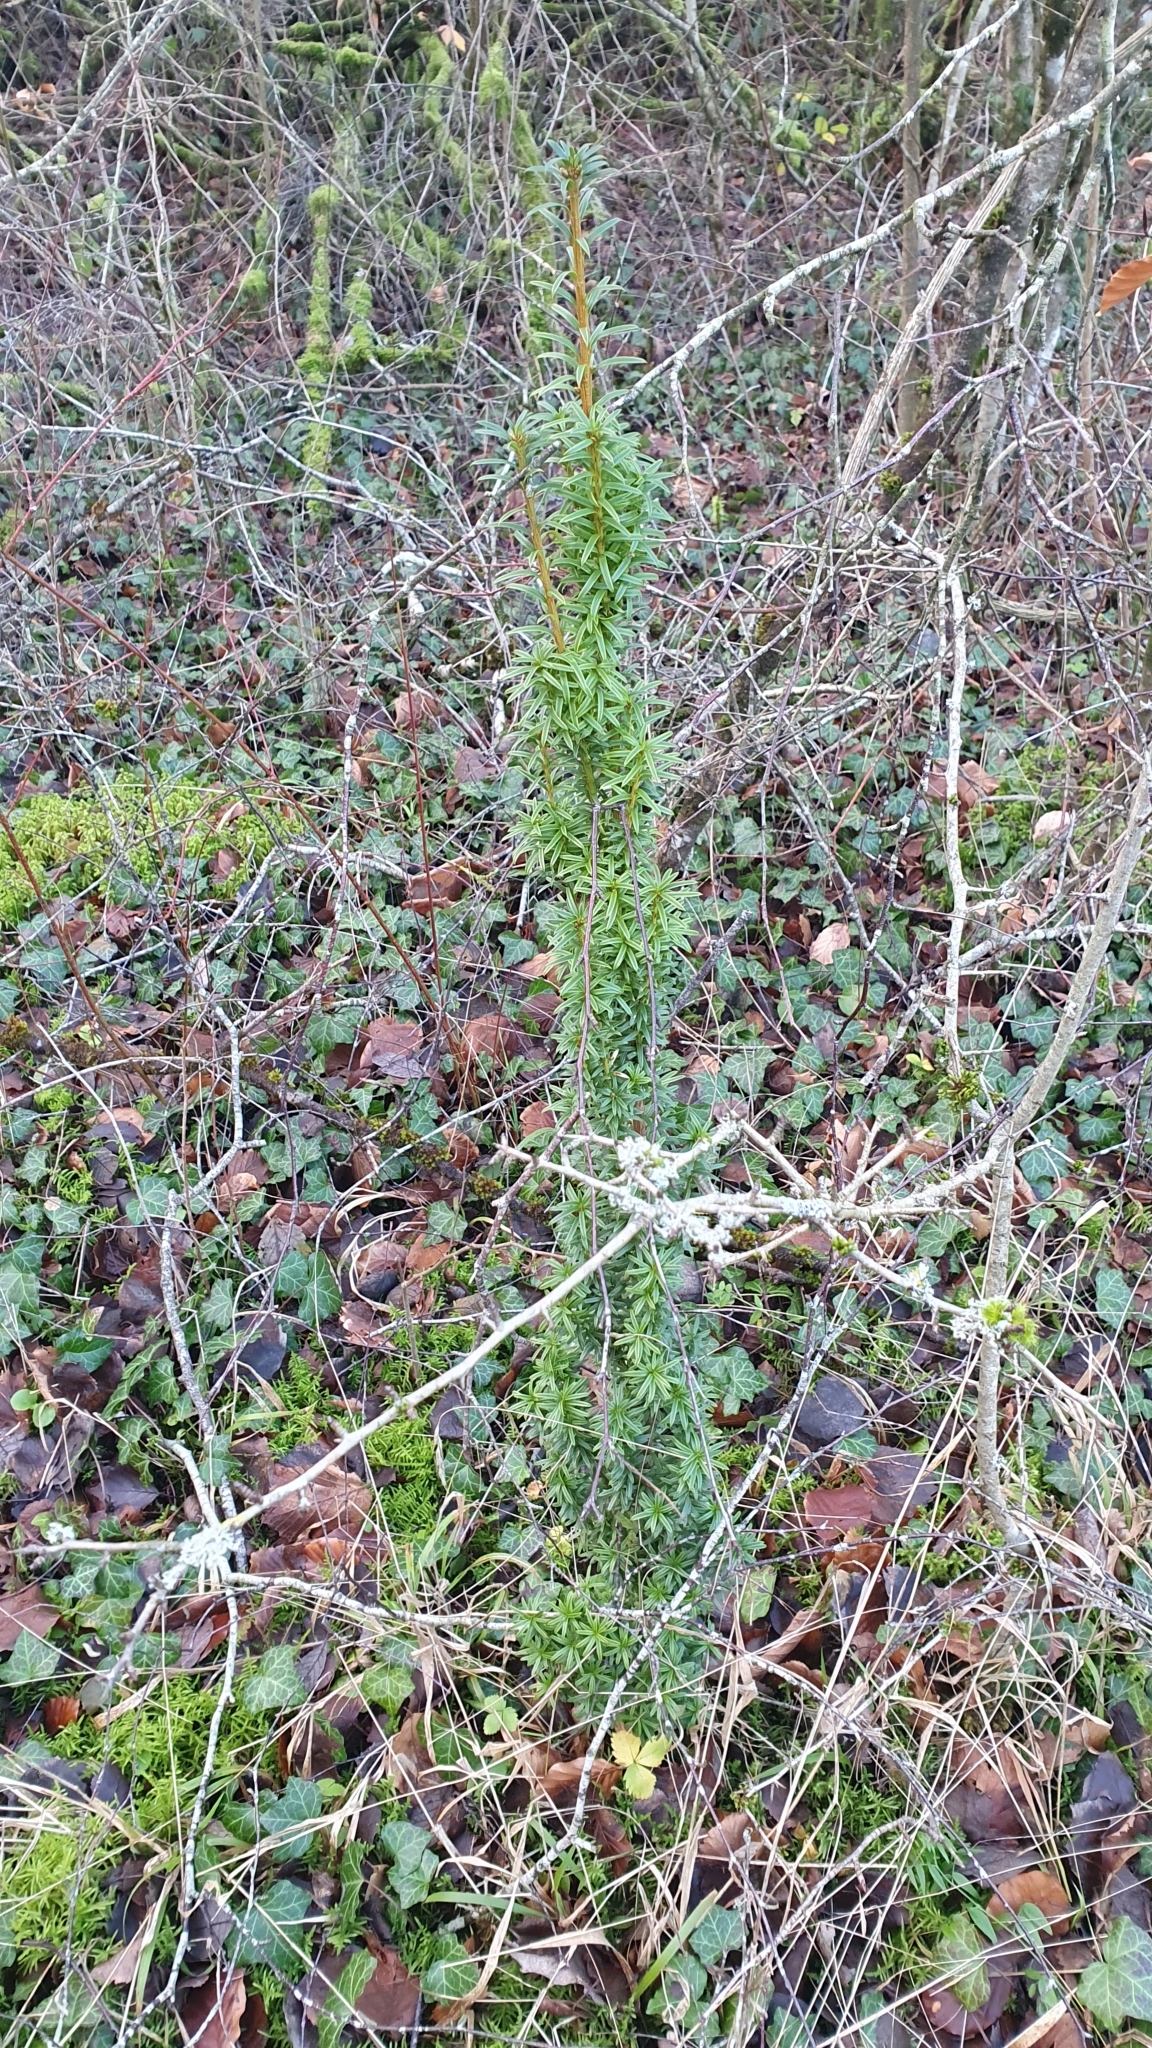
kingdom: Plantae
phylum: Tracheophyta
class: Pinopsida
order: Pinales
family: Taxaceae
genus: Taxus
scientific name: Taxus baccata
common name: Yew
